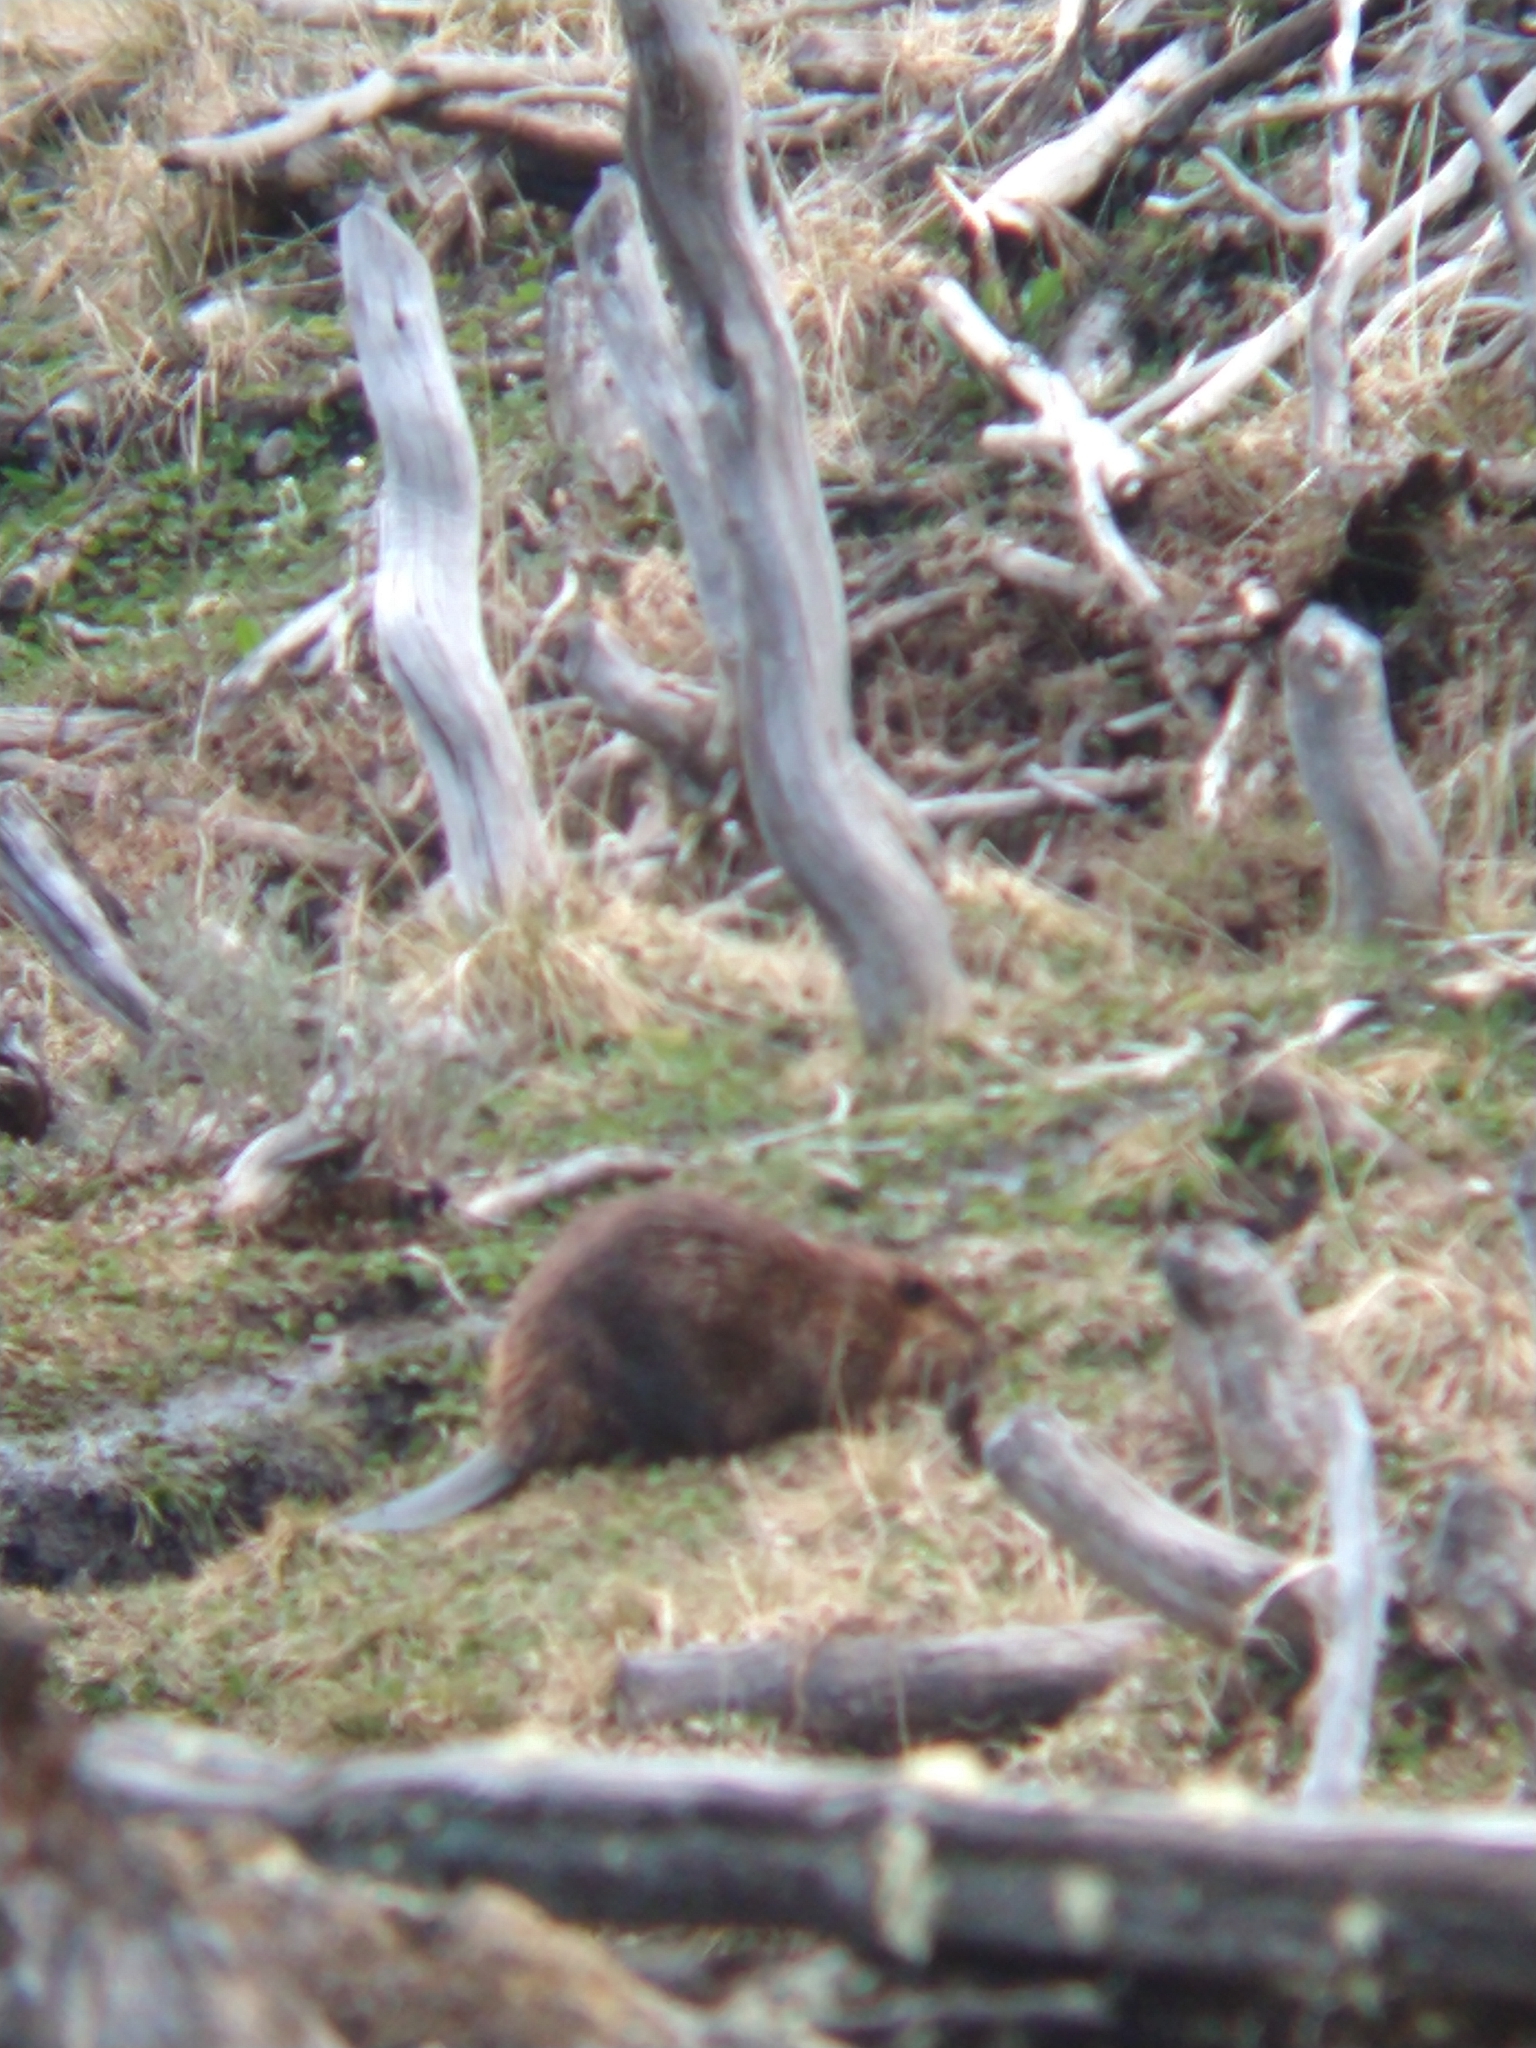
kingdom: Animalia
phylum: Chordata
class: Mammalia
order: Rodentia
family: Castoridae
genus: Castor
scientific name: Castor canadensis
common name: American beaver
